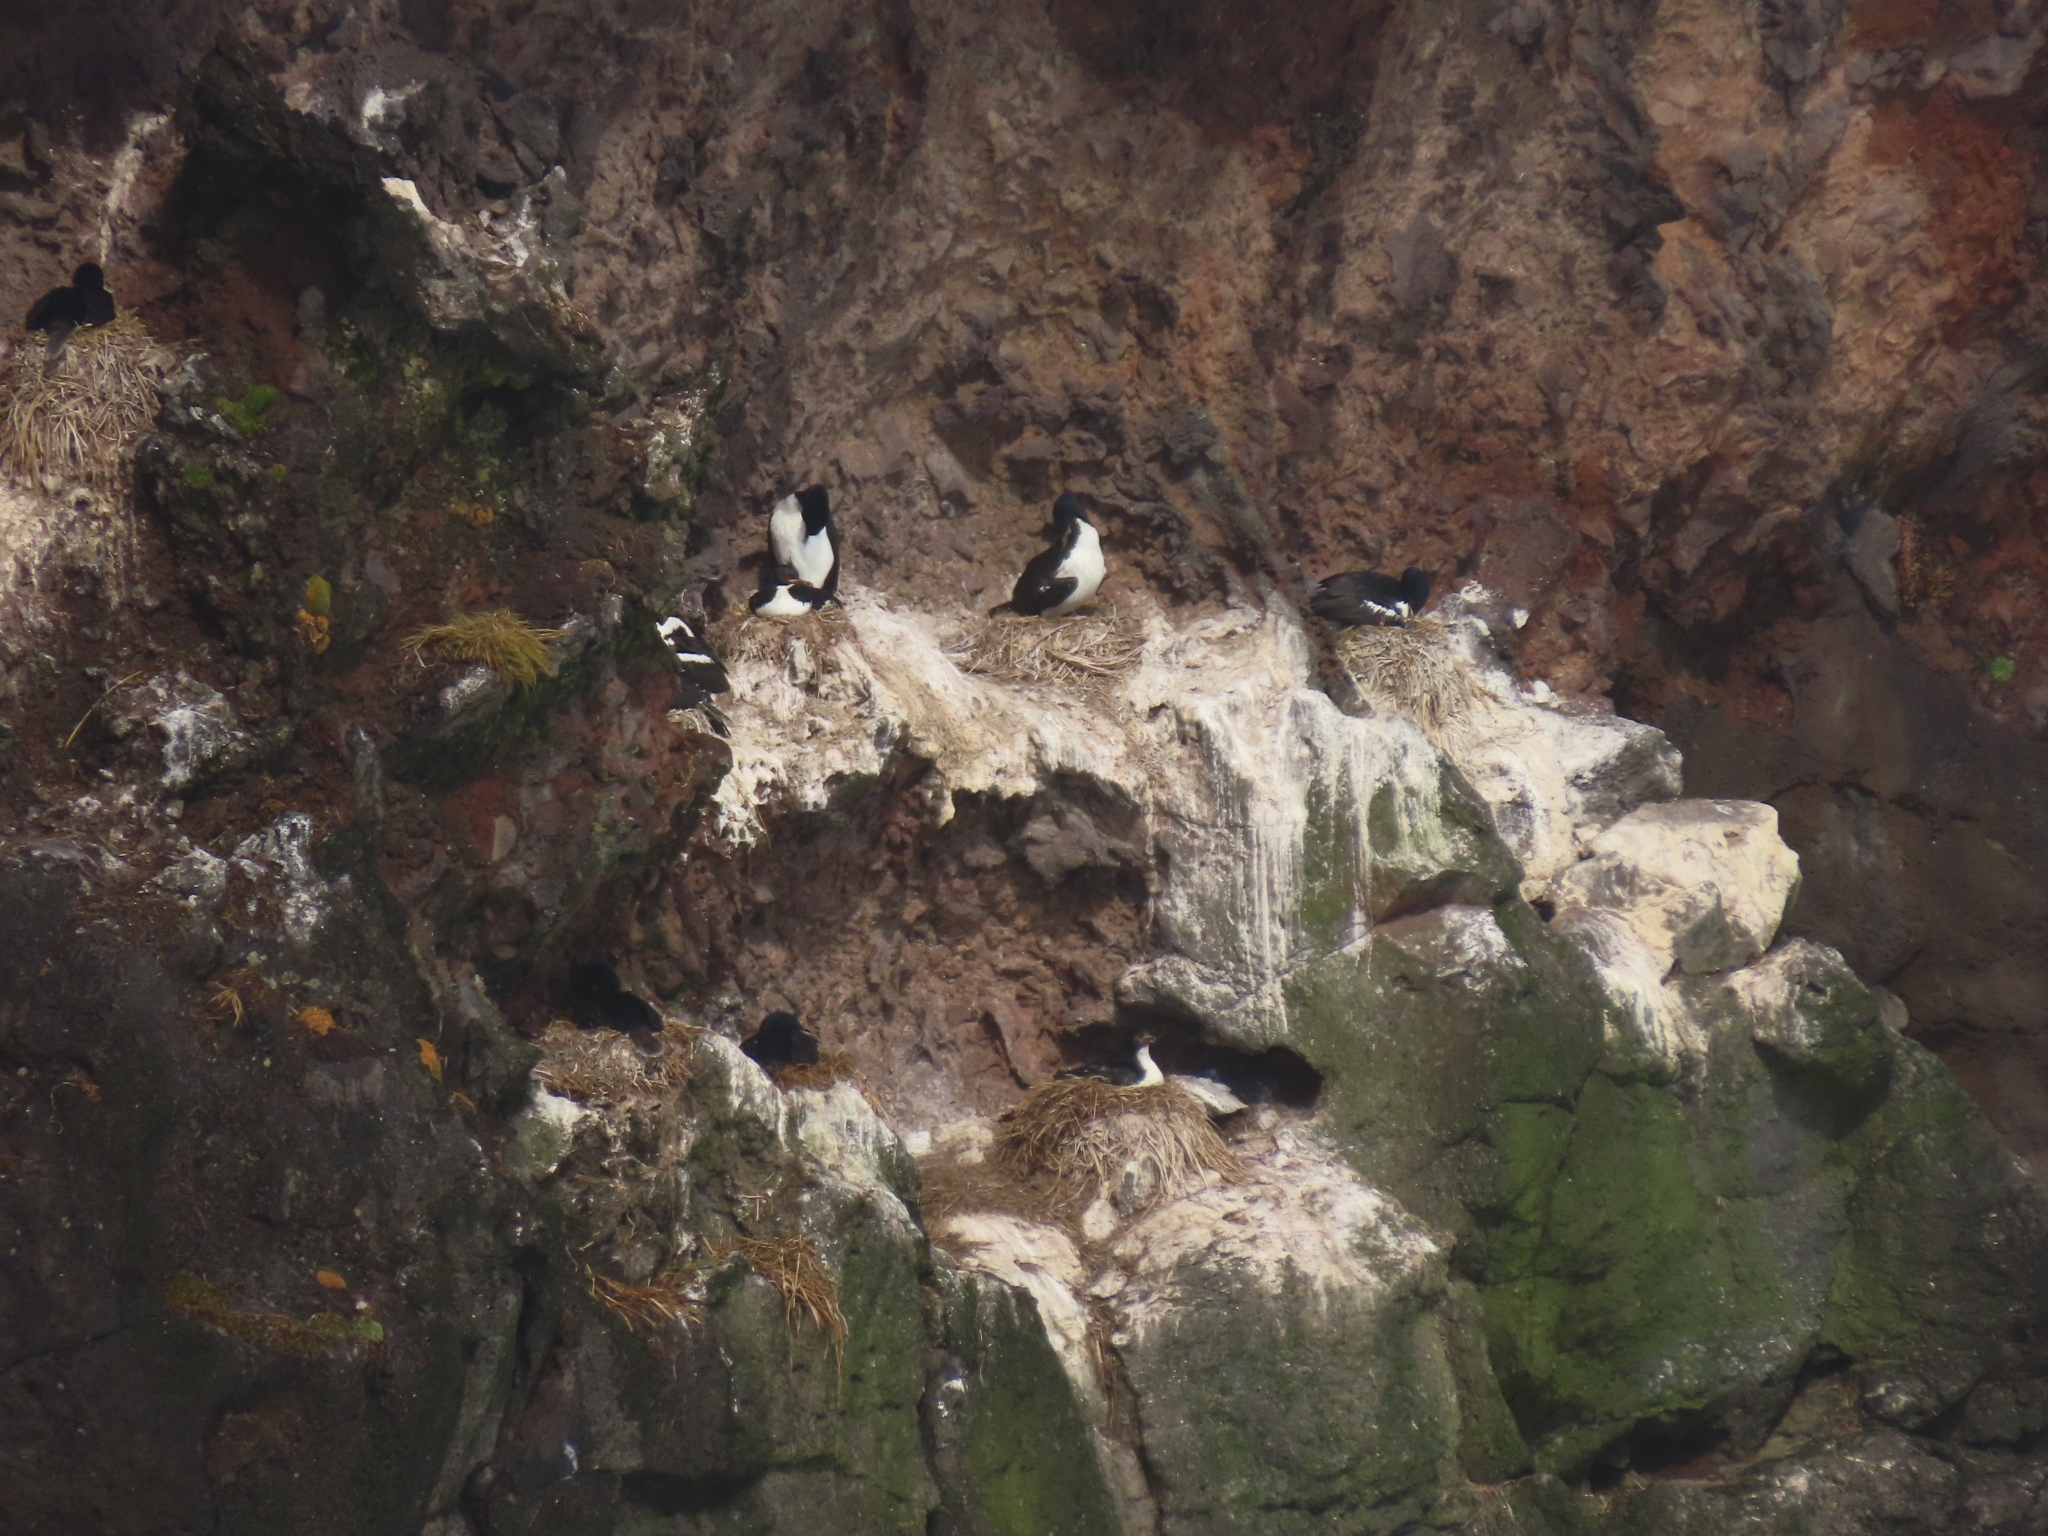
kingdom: Animalia
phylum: Chordata
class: Aves
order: Suliformes
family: Phalacrocoracidae
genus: Leucocarbo
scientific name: Leucocarbo colensoi
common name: Auckland shag
